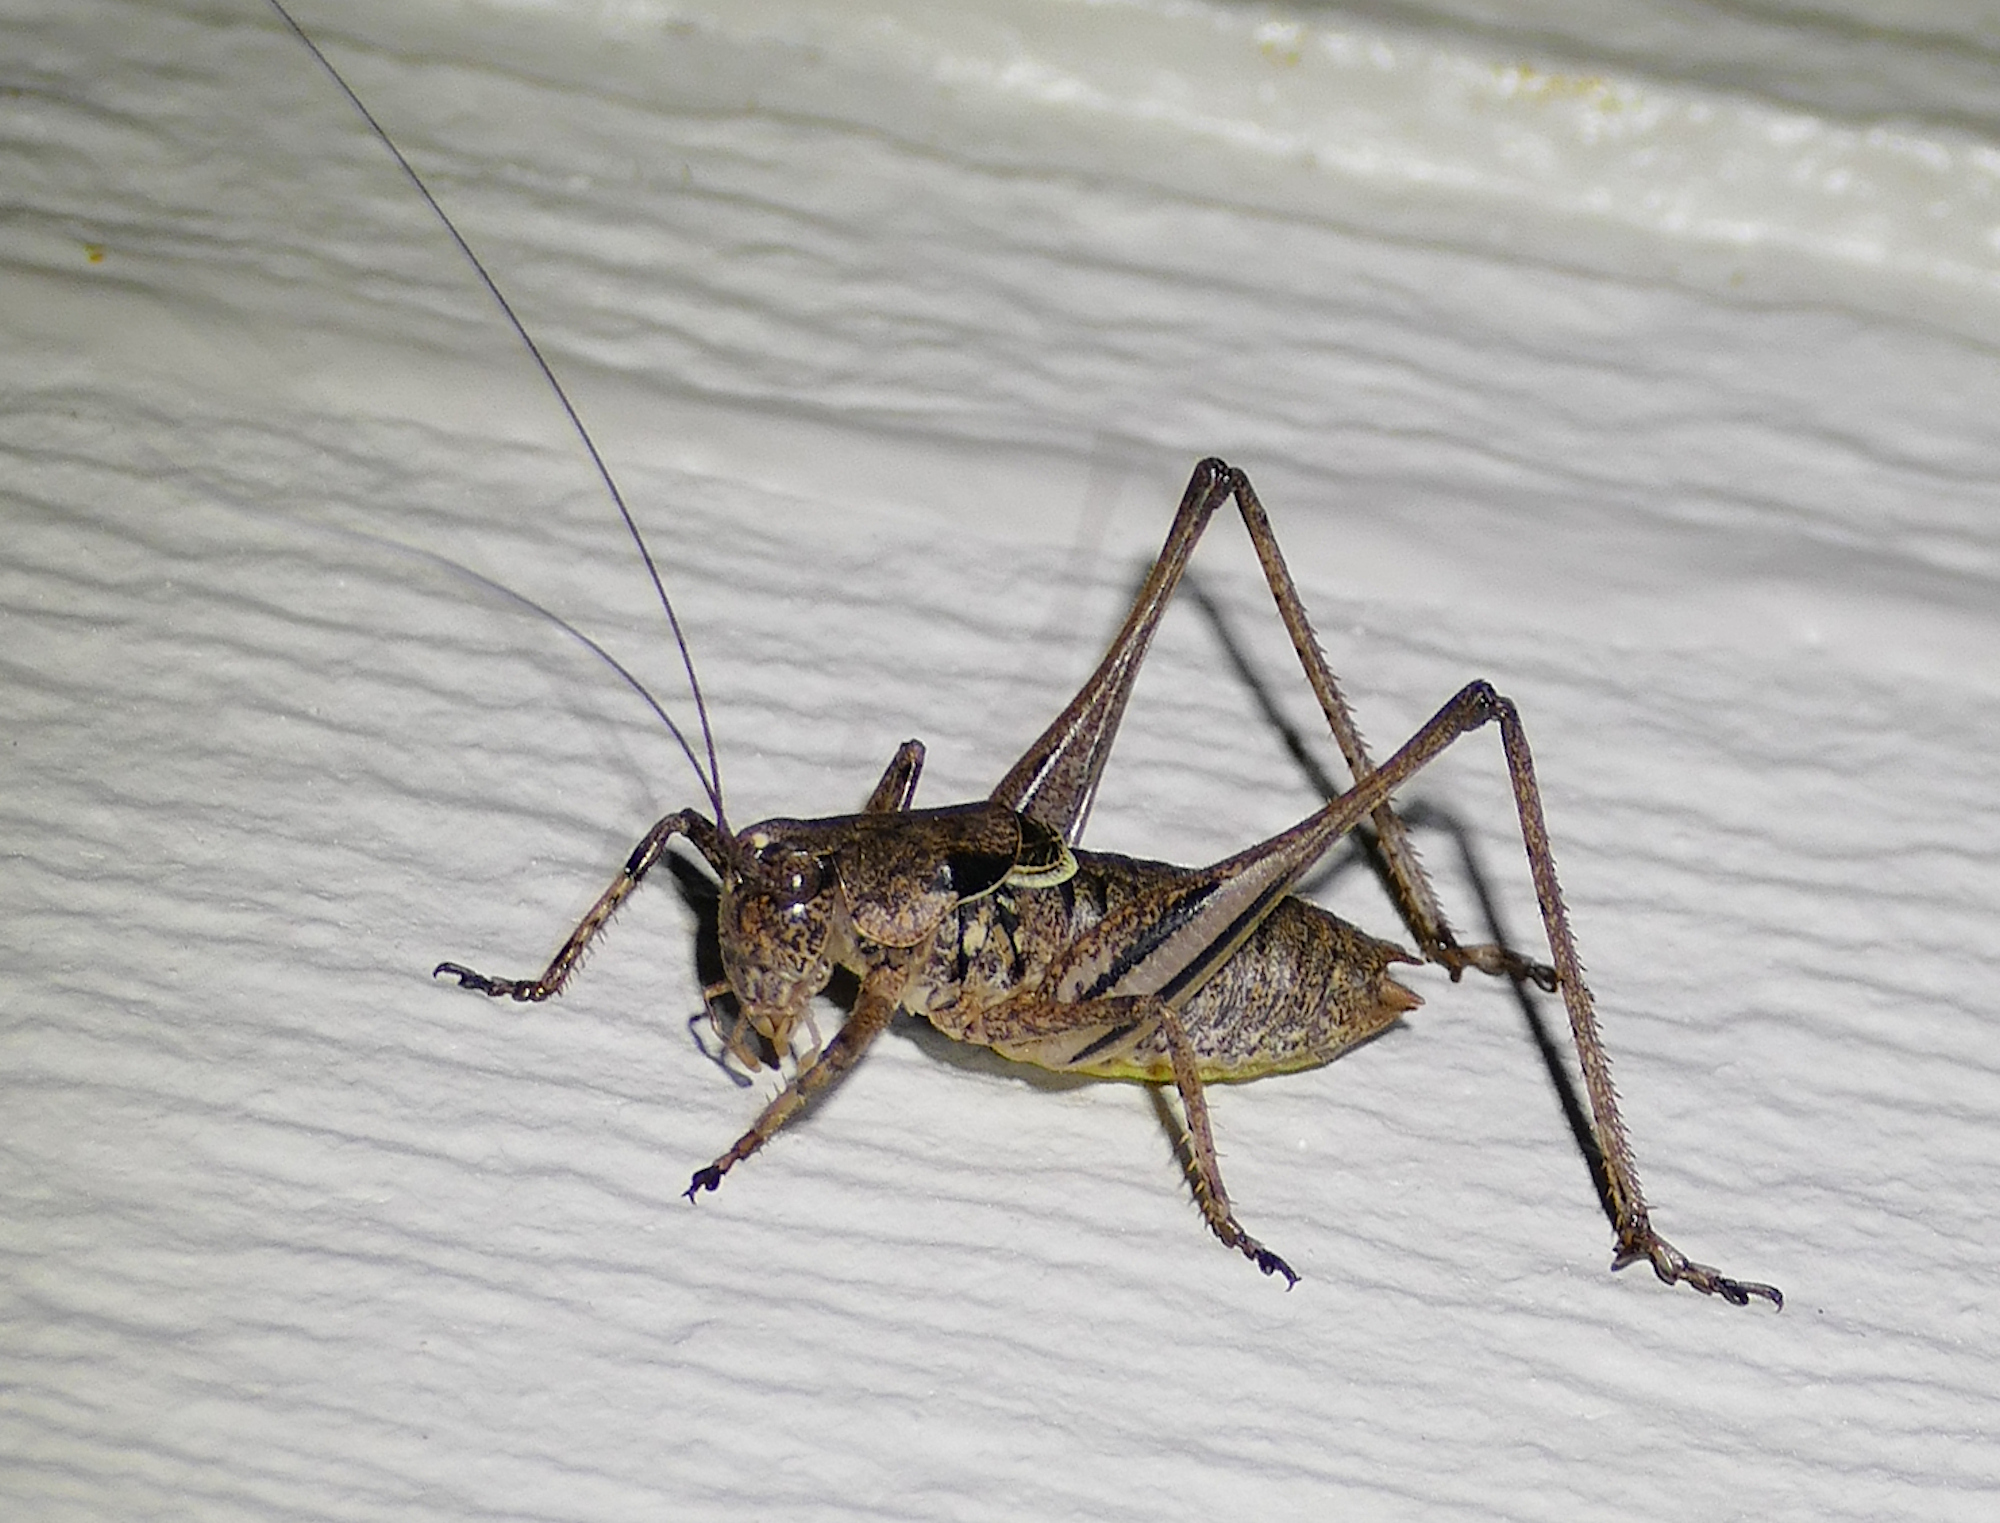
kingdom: Animalia
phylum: Arthropoda
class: Insecta
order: Orthoptera
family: Tettigoniidae
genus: Eremopedes
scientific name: Eremopedes balli
